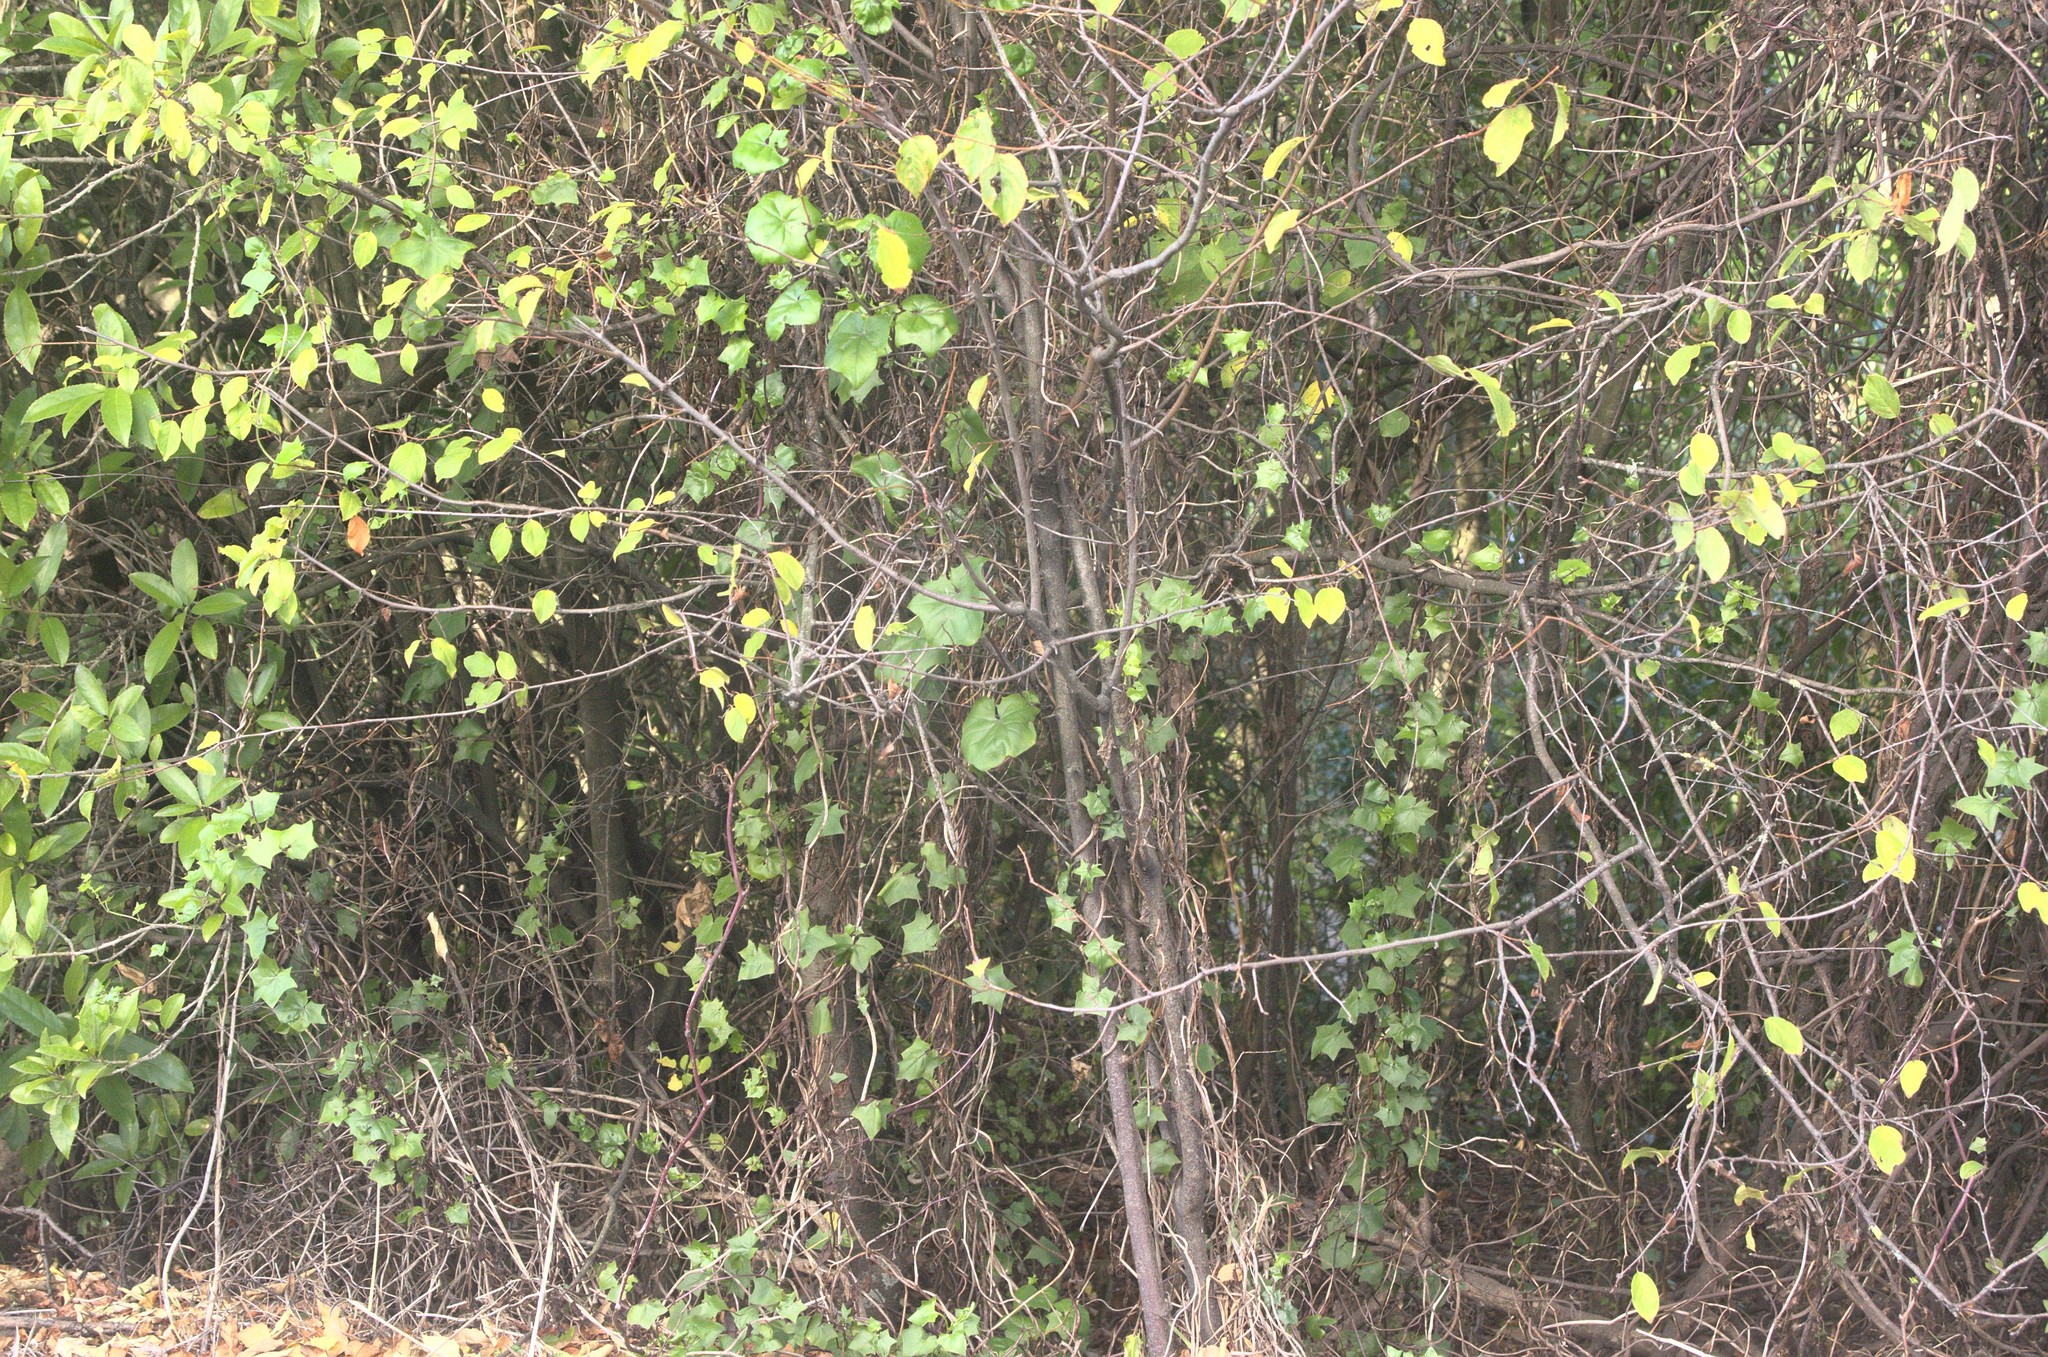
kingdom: Plantae
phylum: Tracheophyta
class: Magnoliopsida
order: Asterales
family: Asteraceae
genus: Delairea
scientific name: Delairea odorata
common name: Cape-ivy
